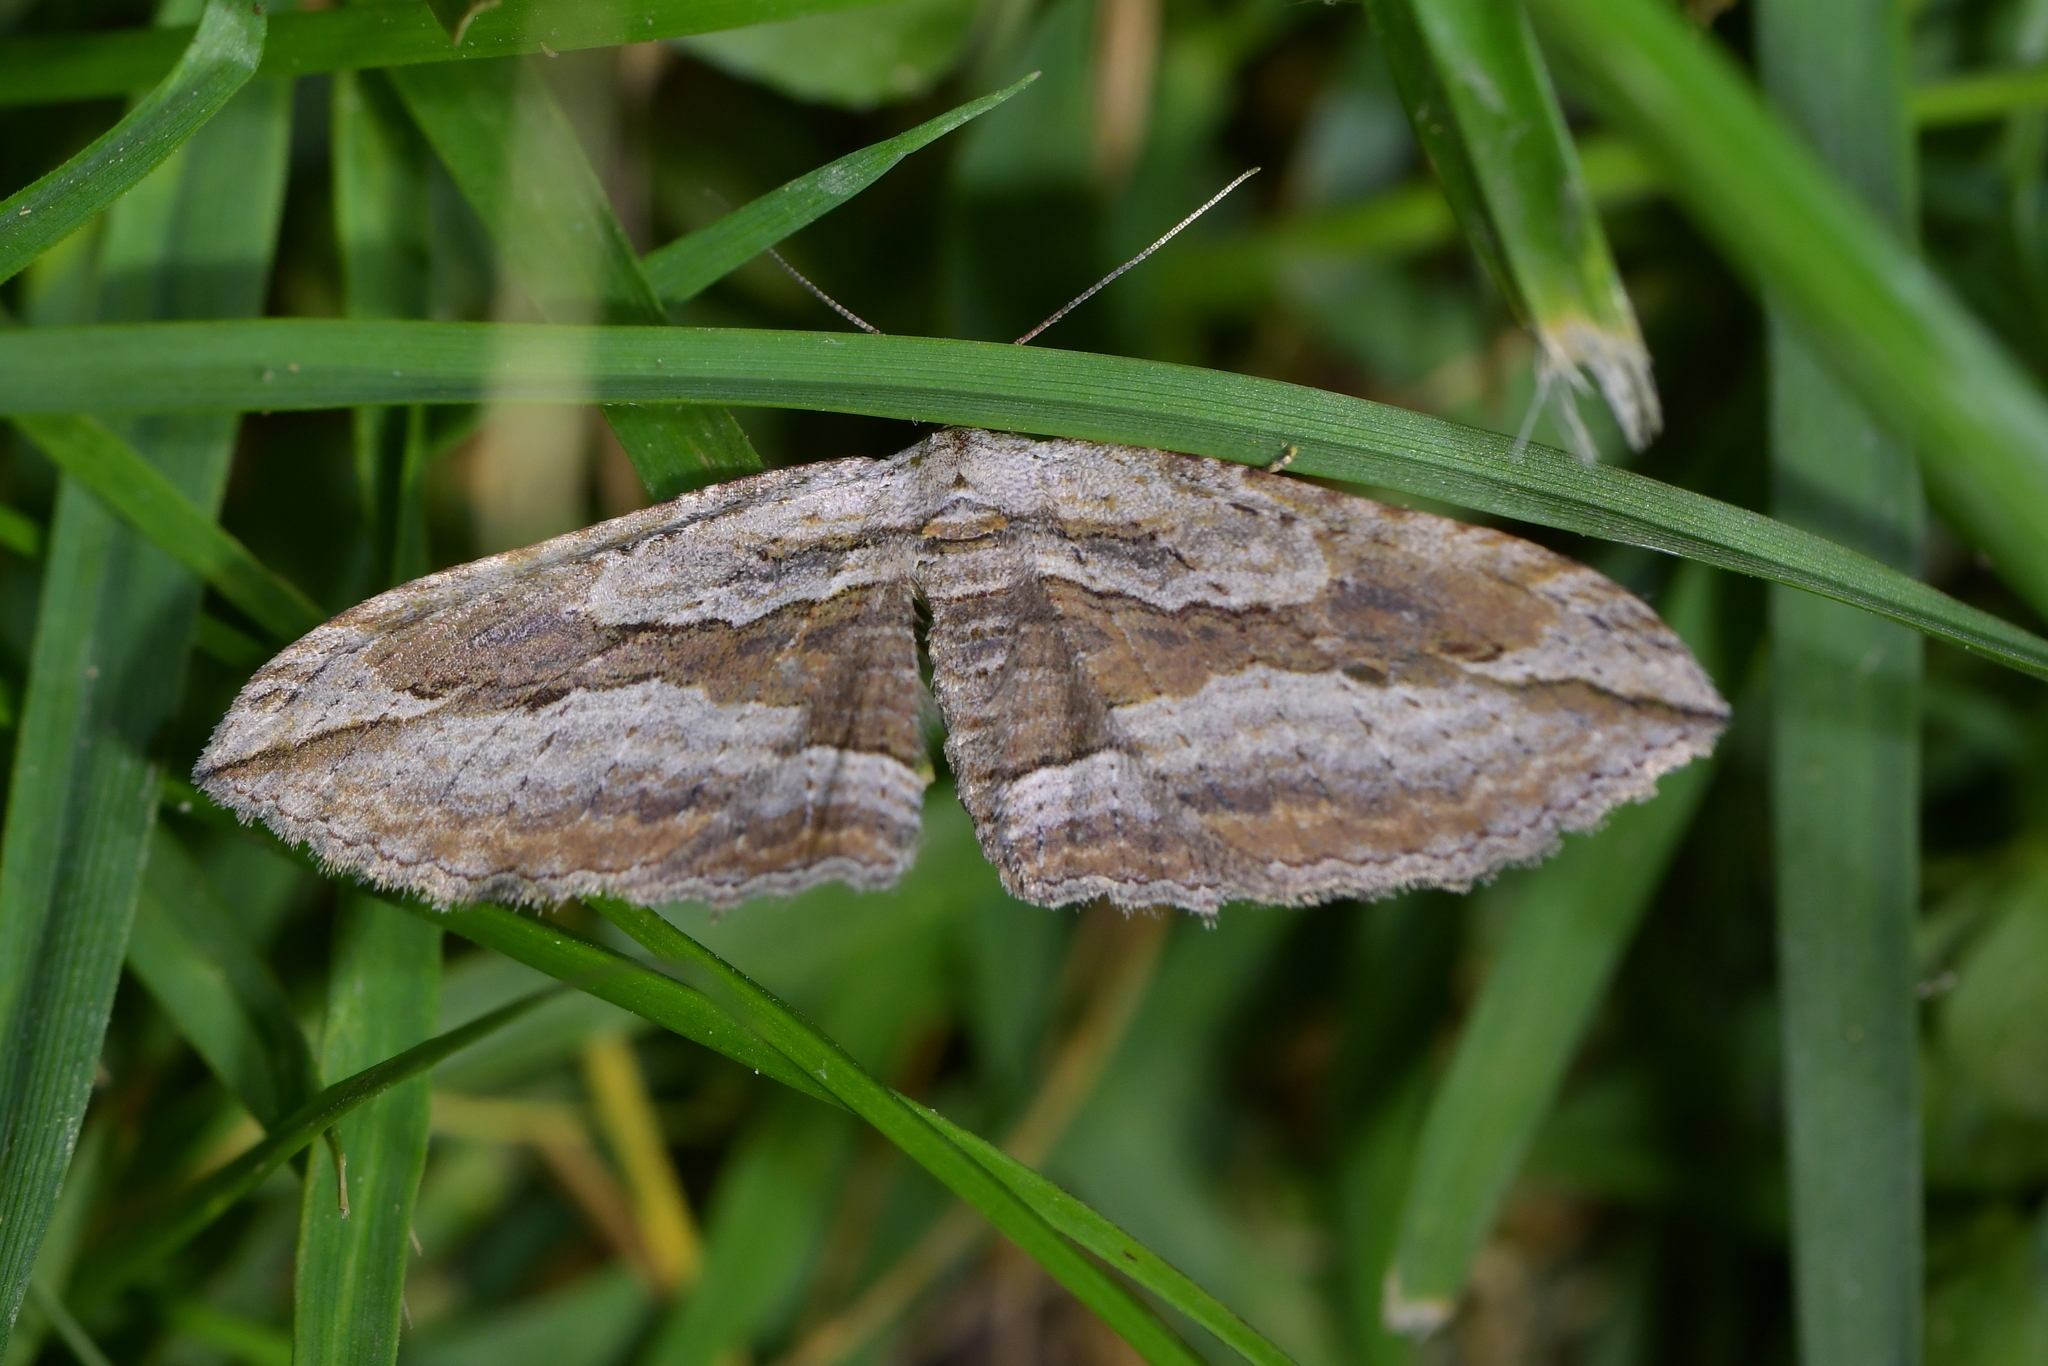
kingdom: Animalia
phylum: Arthropoda
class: Insecta
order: Lepidoptera
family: Geometridae
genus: Austrocidaria
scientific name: Austrocidaria gobiata
